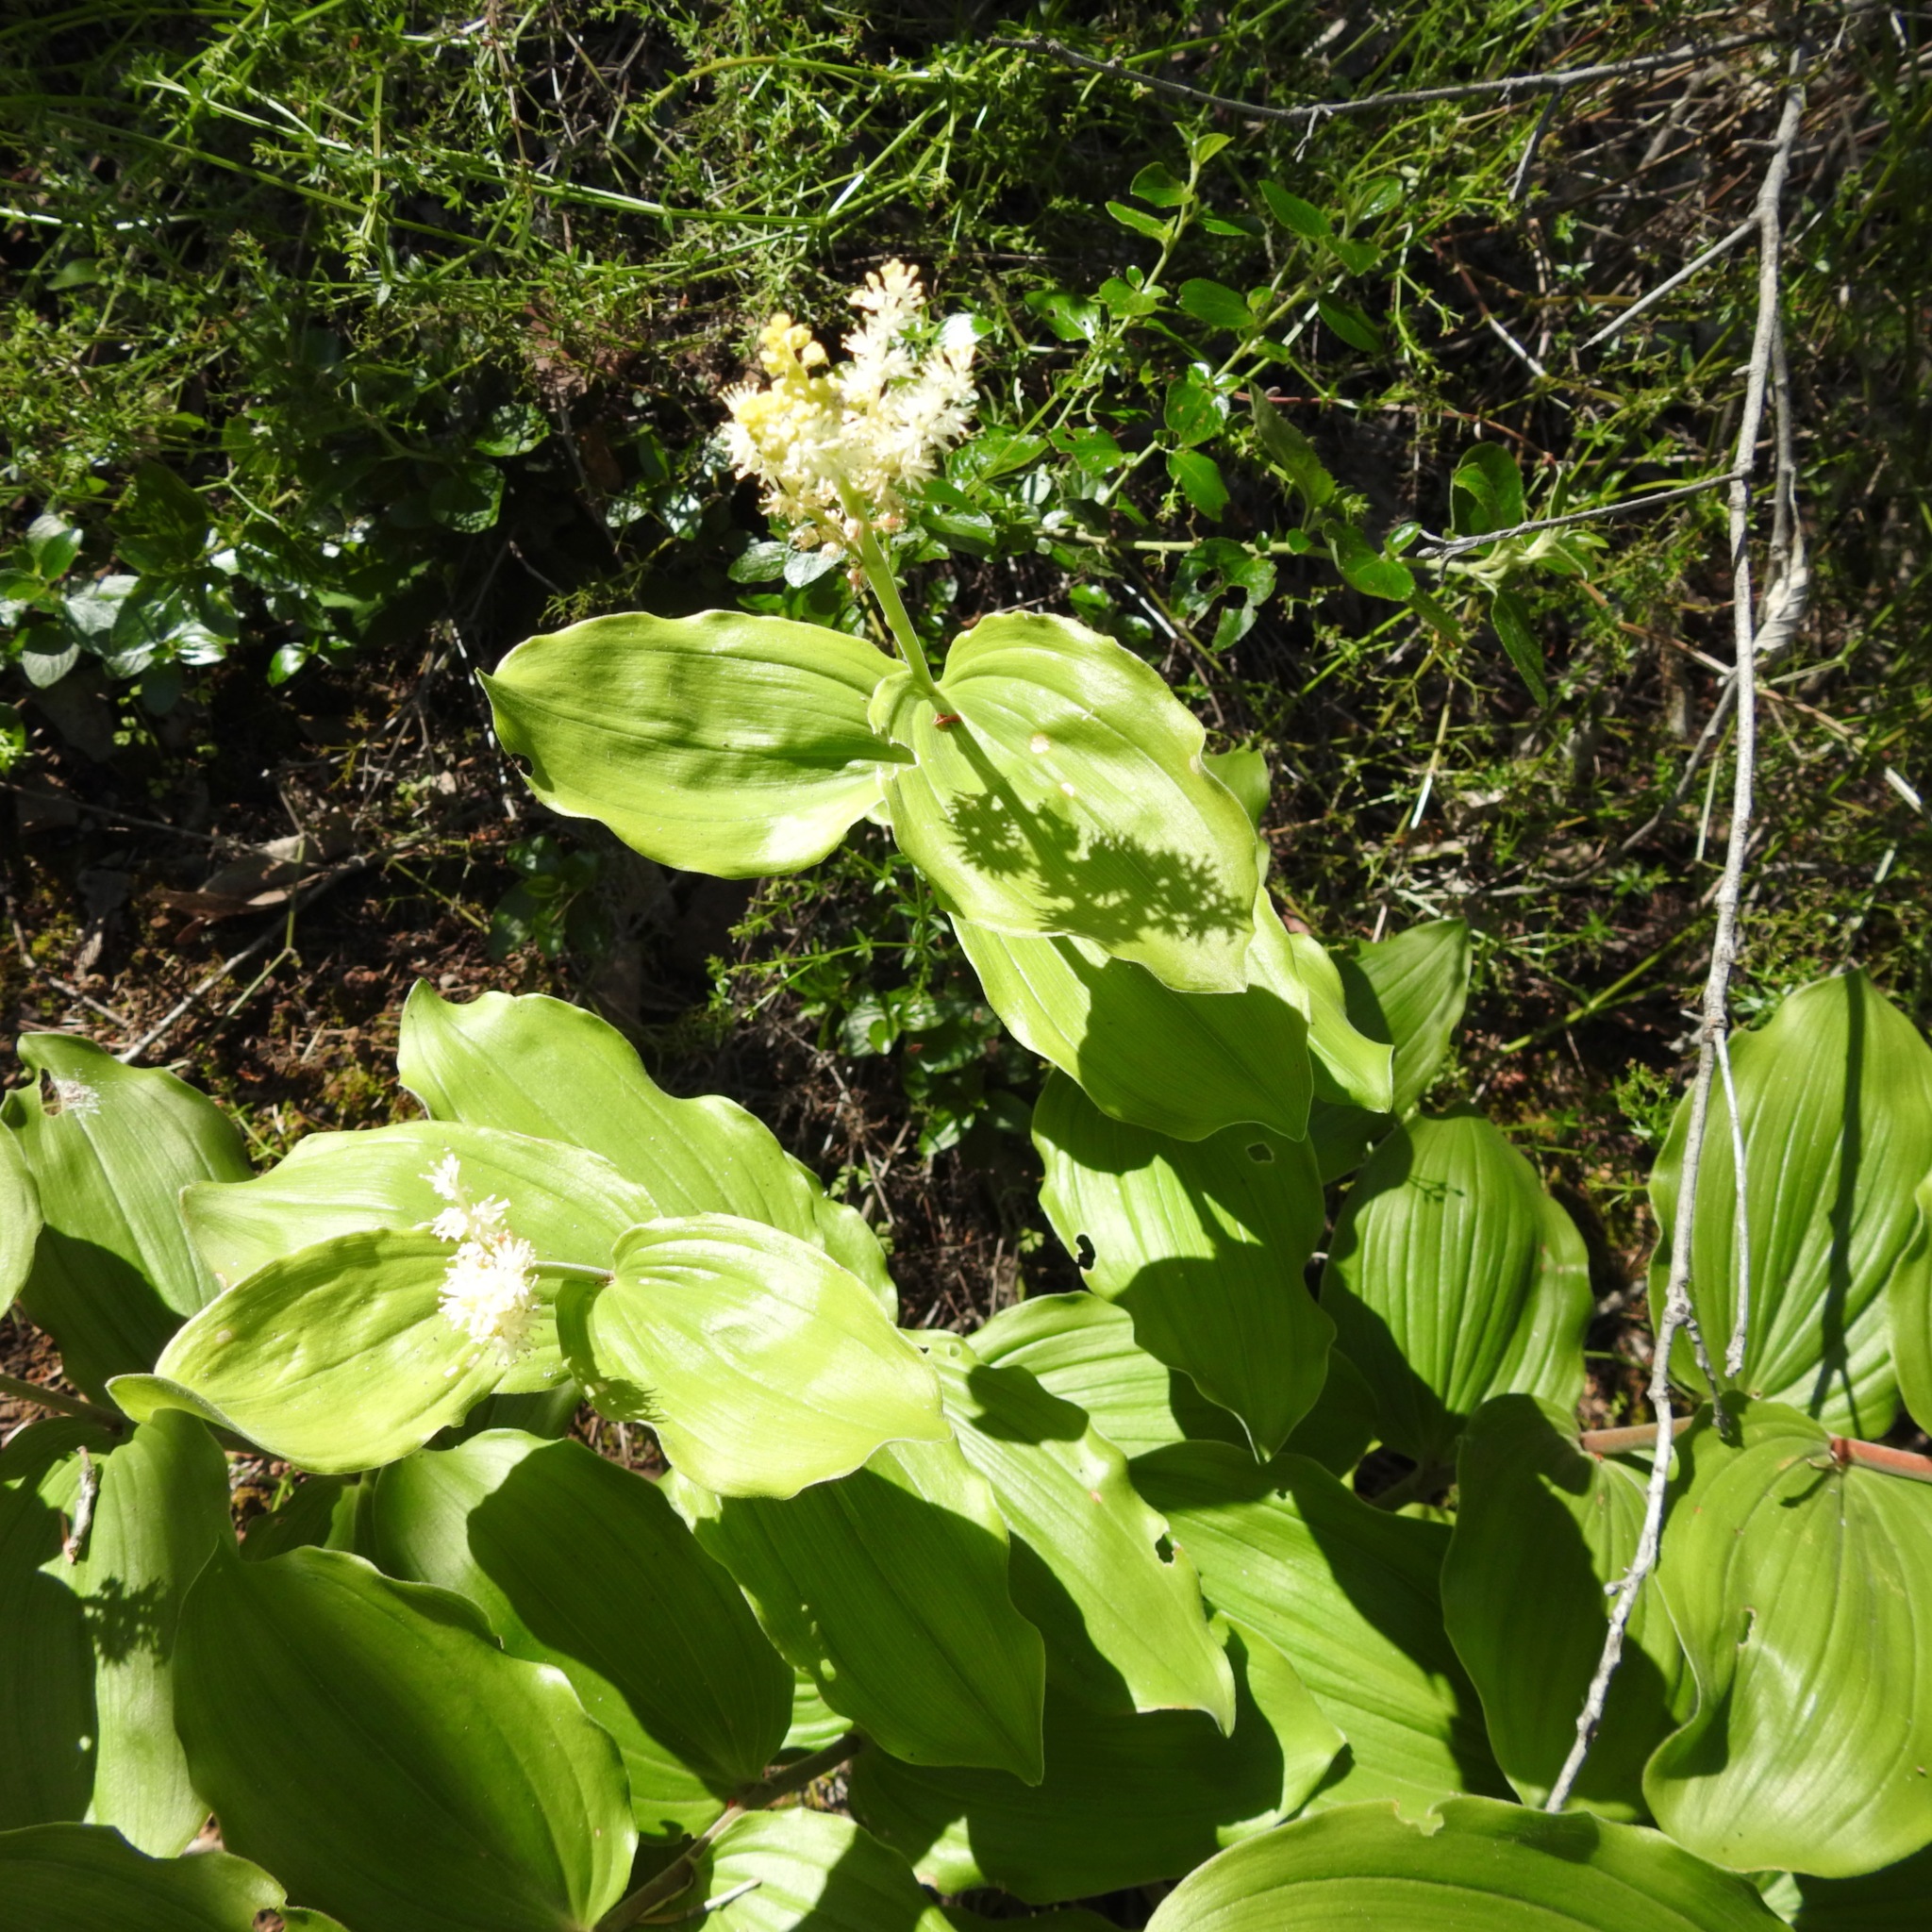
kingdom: Plantae
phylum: Tracheophyta
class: Liliopsida
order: Asparagales
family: Asparagaceae
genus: Maianthemum
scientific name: Maianthemum racemosum
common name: False spikenard
